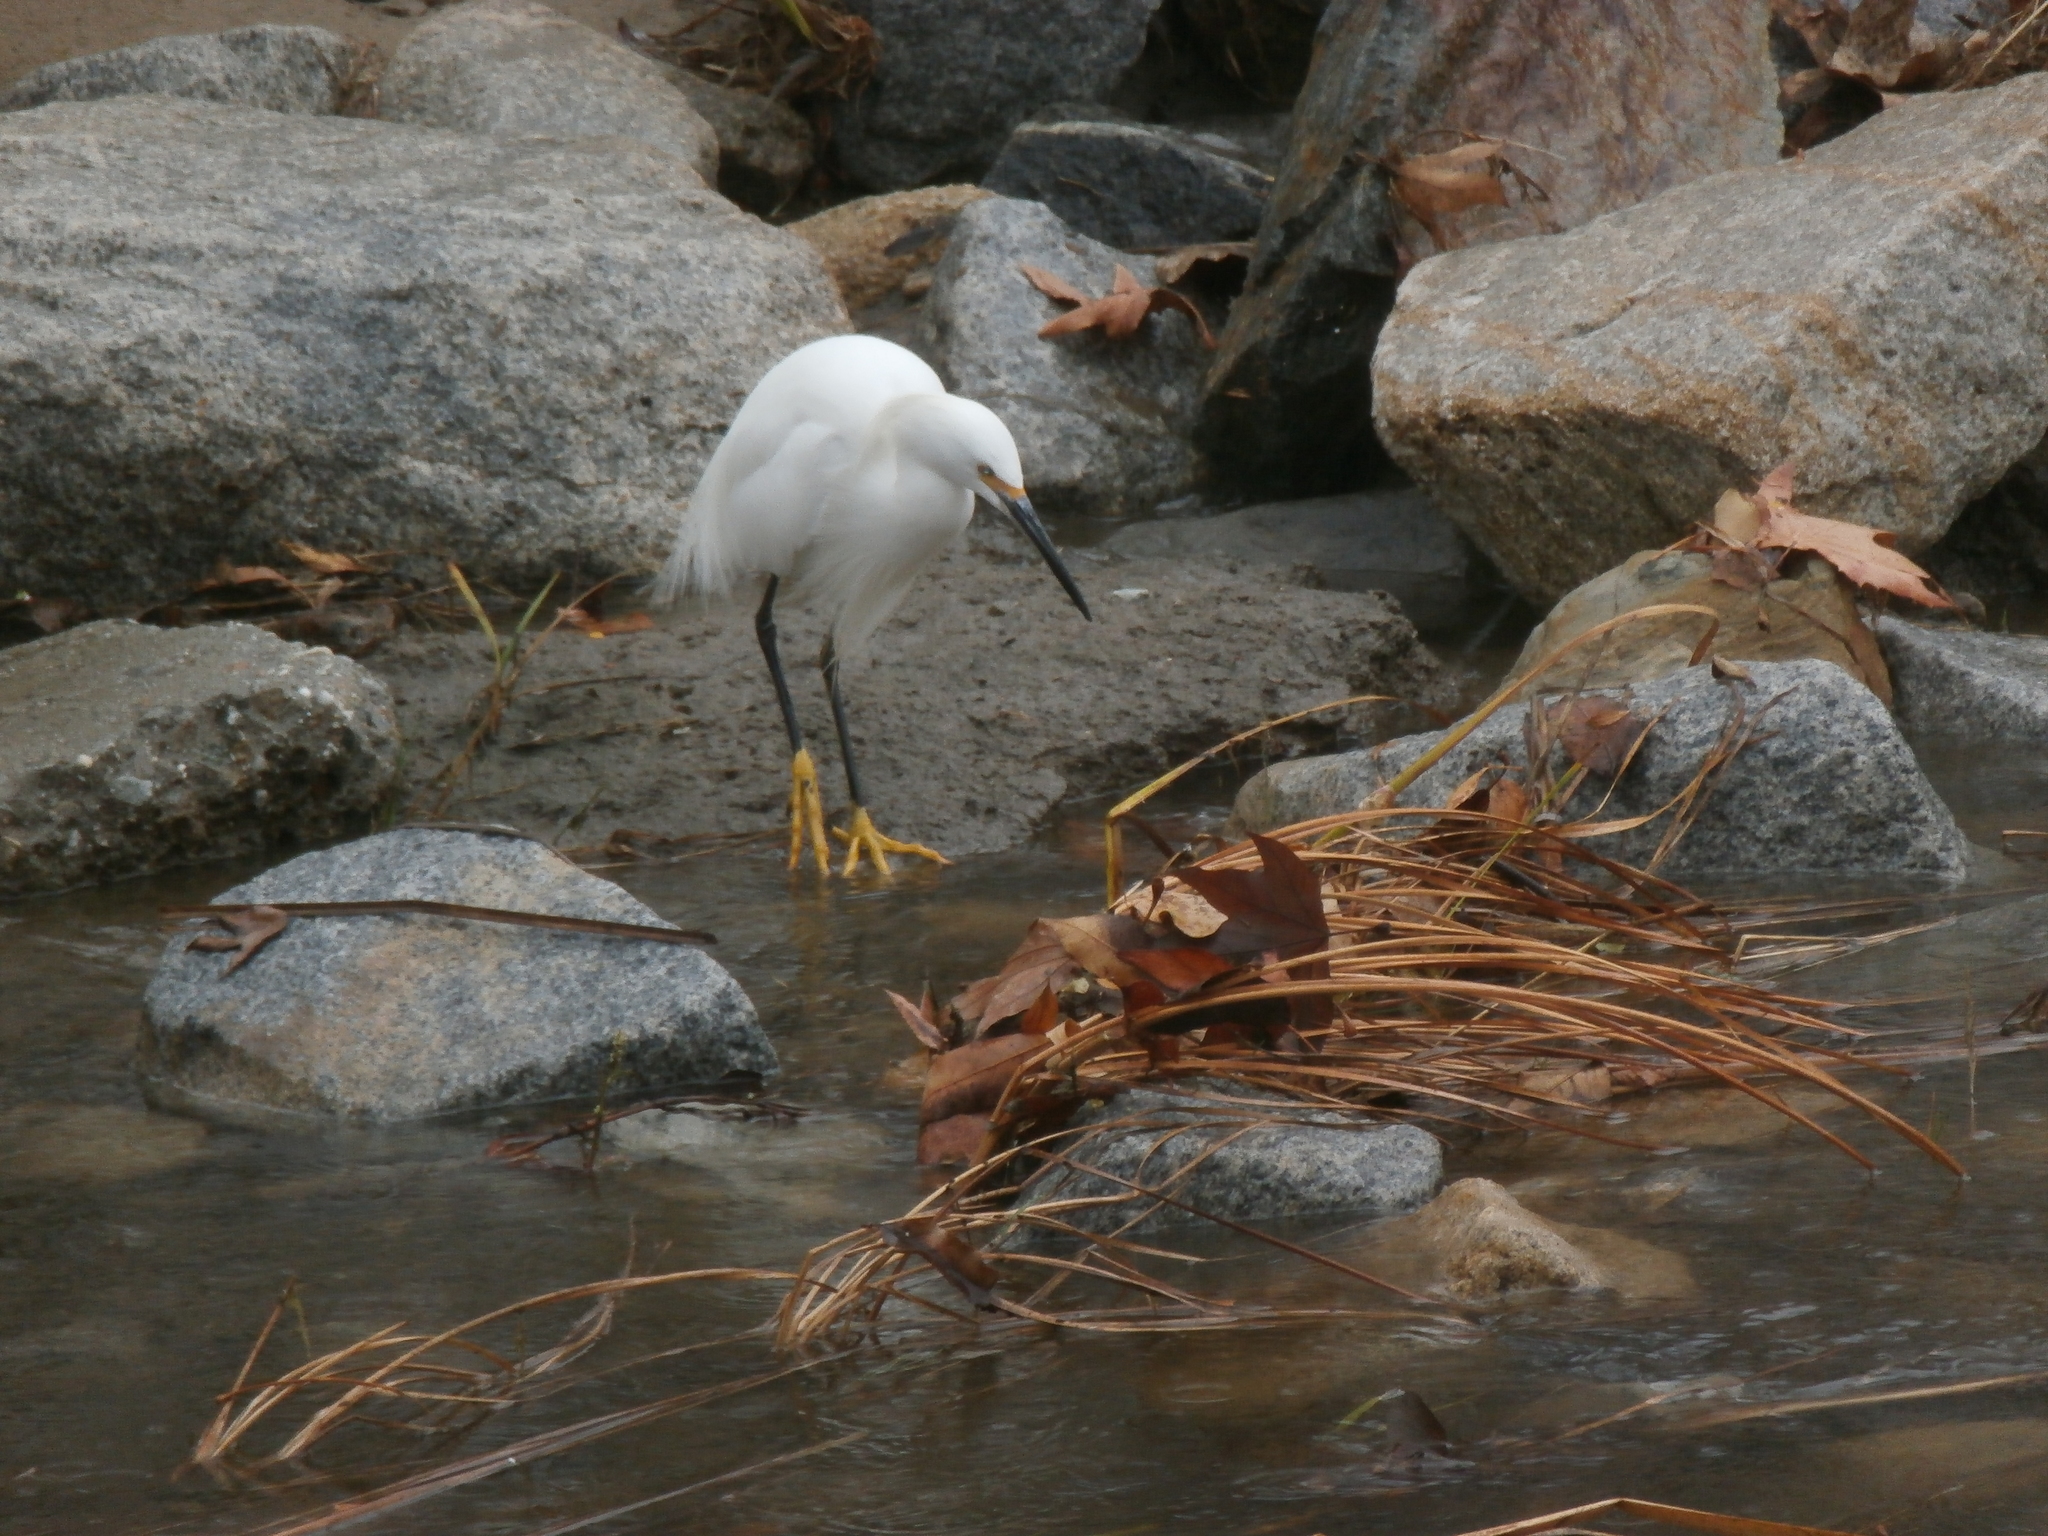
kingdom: Animalia
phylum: Chordata
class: Aves
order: Pelecaniformes
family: Ardeidae
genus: Egretta
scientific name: Egretta thula
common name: Snowy egret
